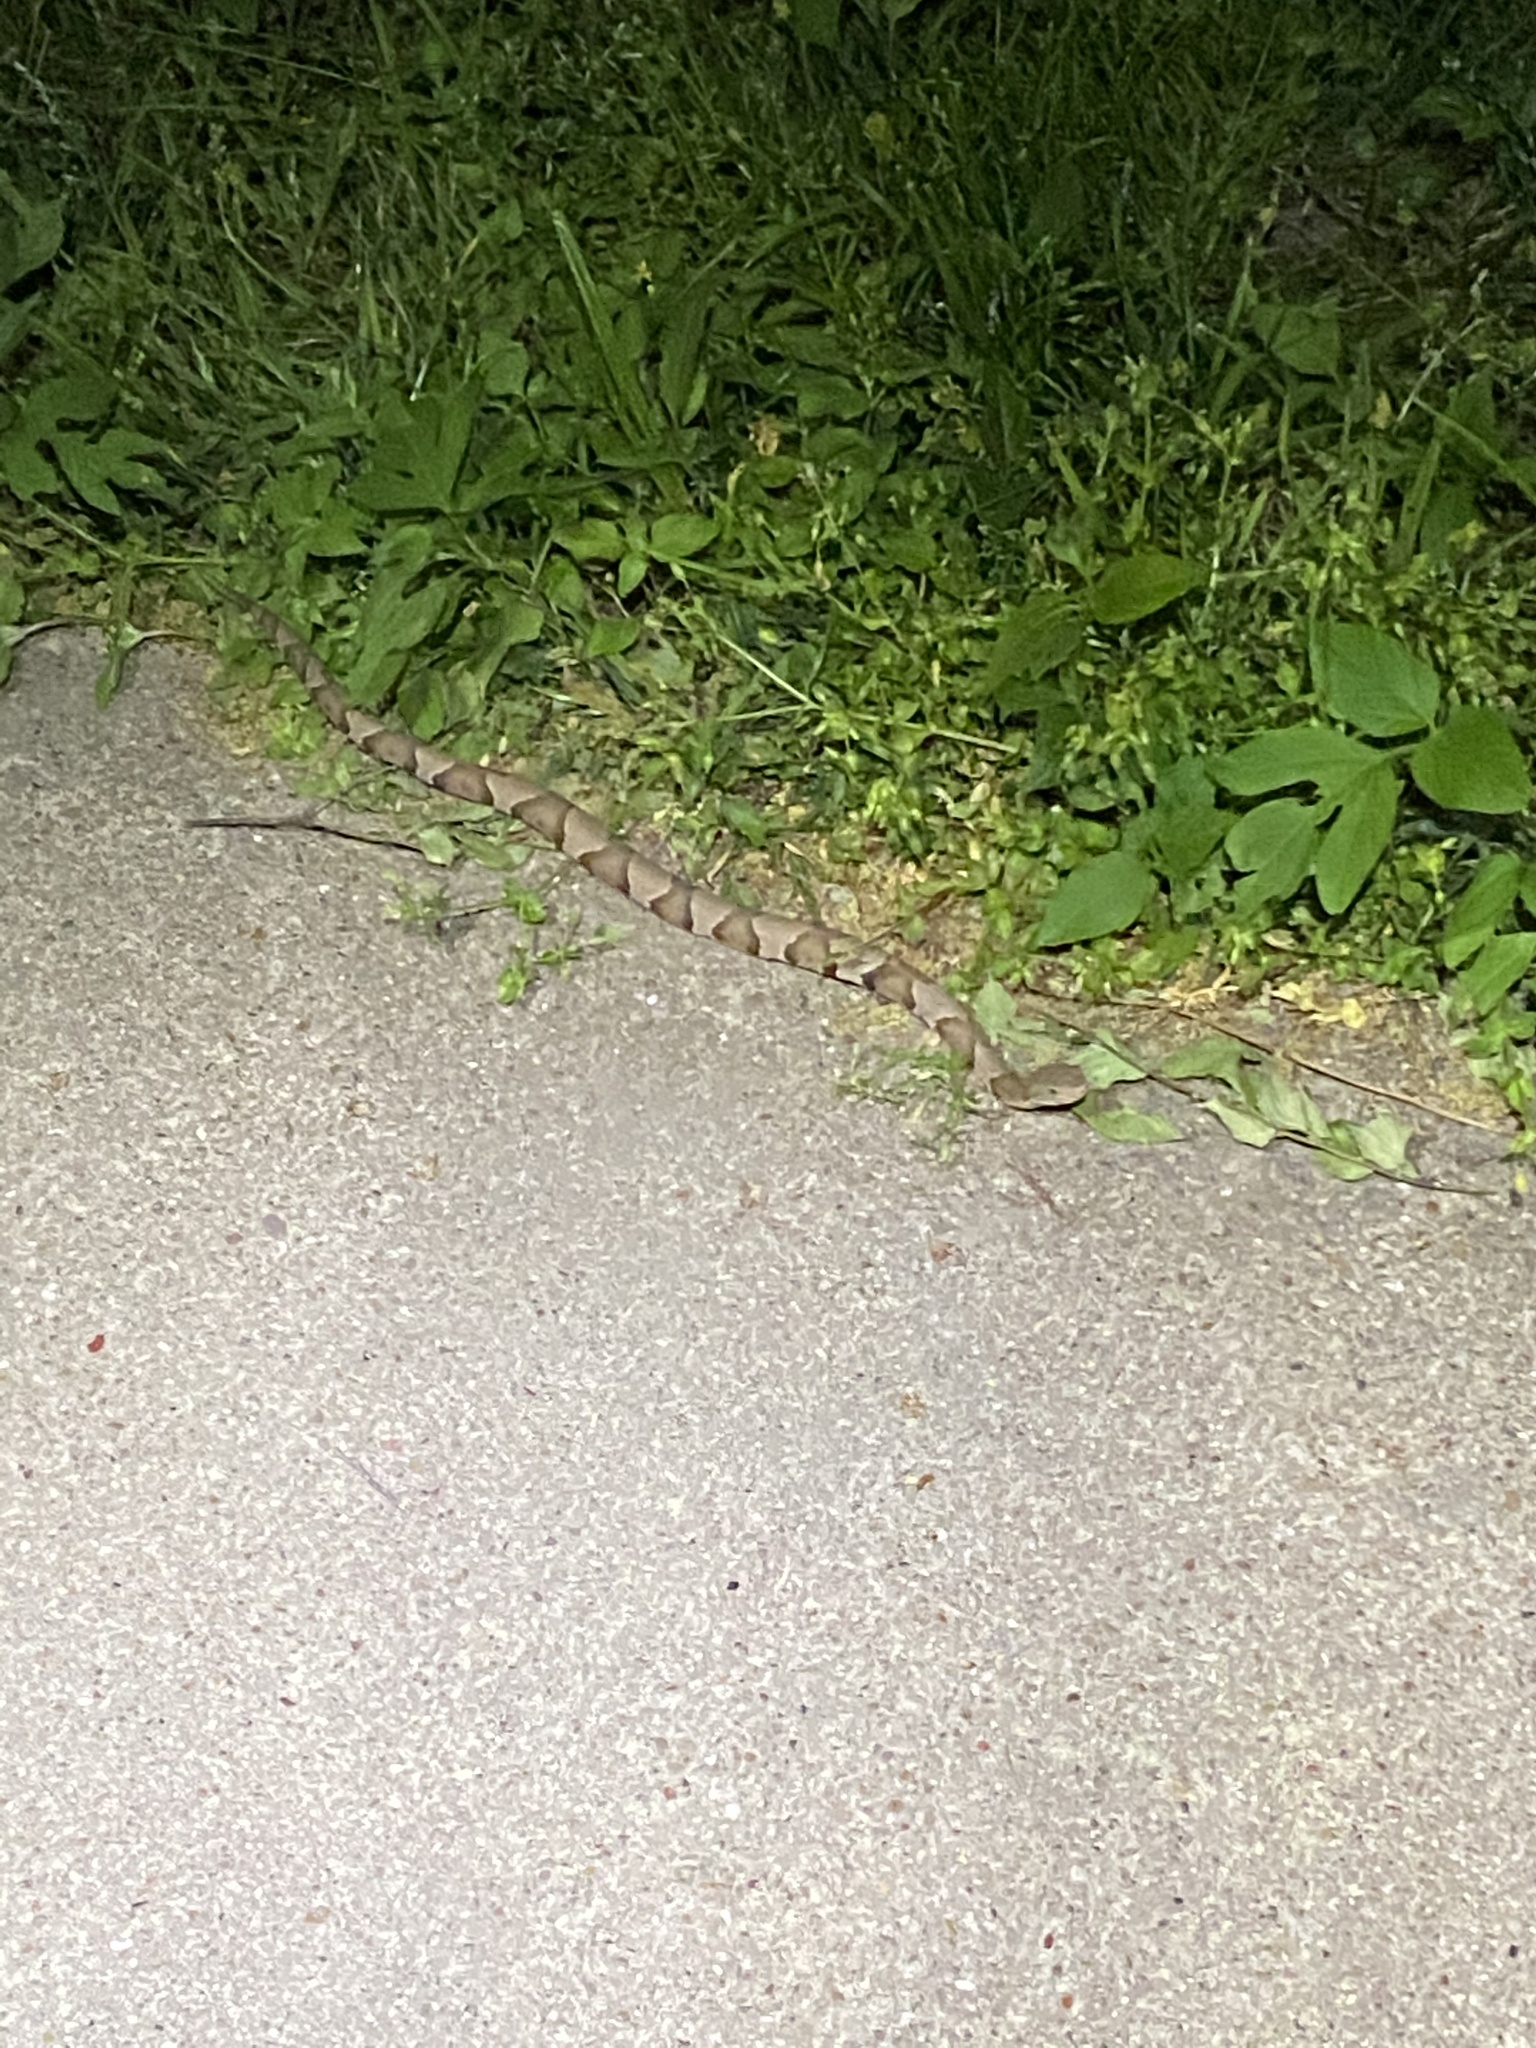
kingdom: Animalia
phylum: Chordata
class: Squamata
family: Viperidae
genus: Agkistrodon
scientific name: Agkistrodon laticinctus
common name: Broad-banded copperhead
